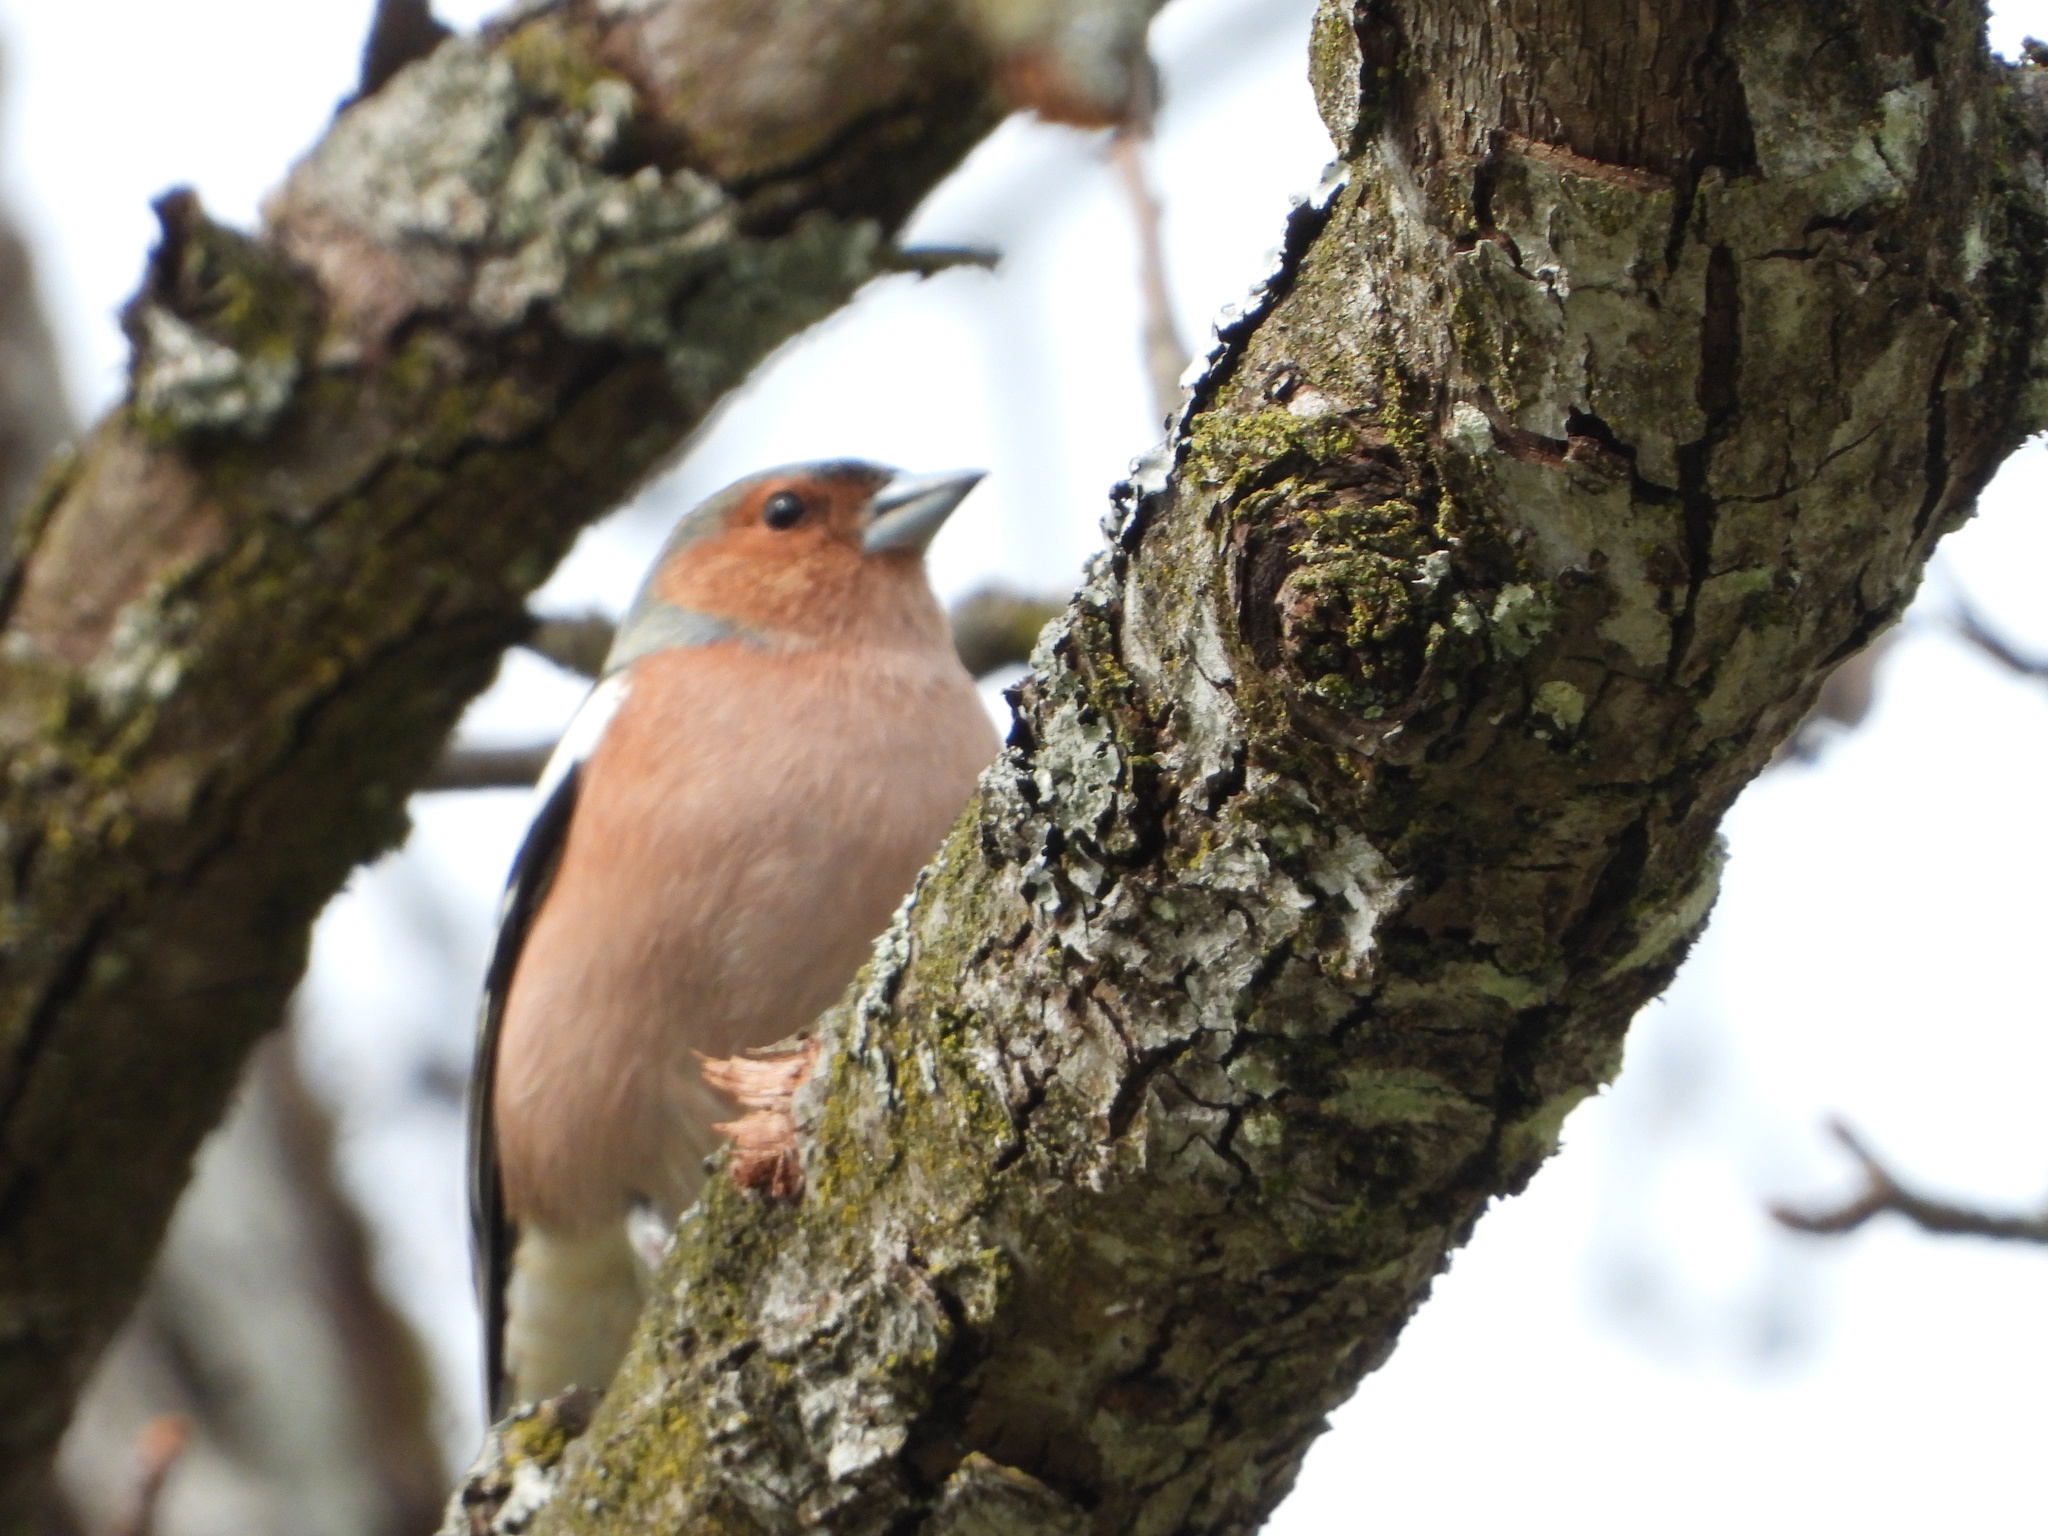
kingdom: Animalia
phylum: Chordata
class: Aves
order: Passeriformes
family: Fringillidae
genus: Fringilla
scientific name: Fringilla coelebs
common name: Common chaffinch
